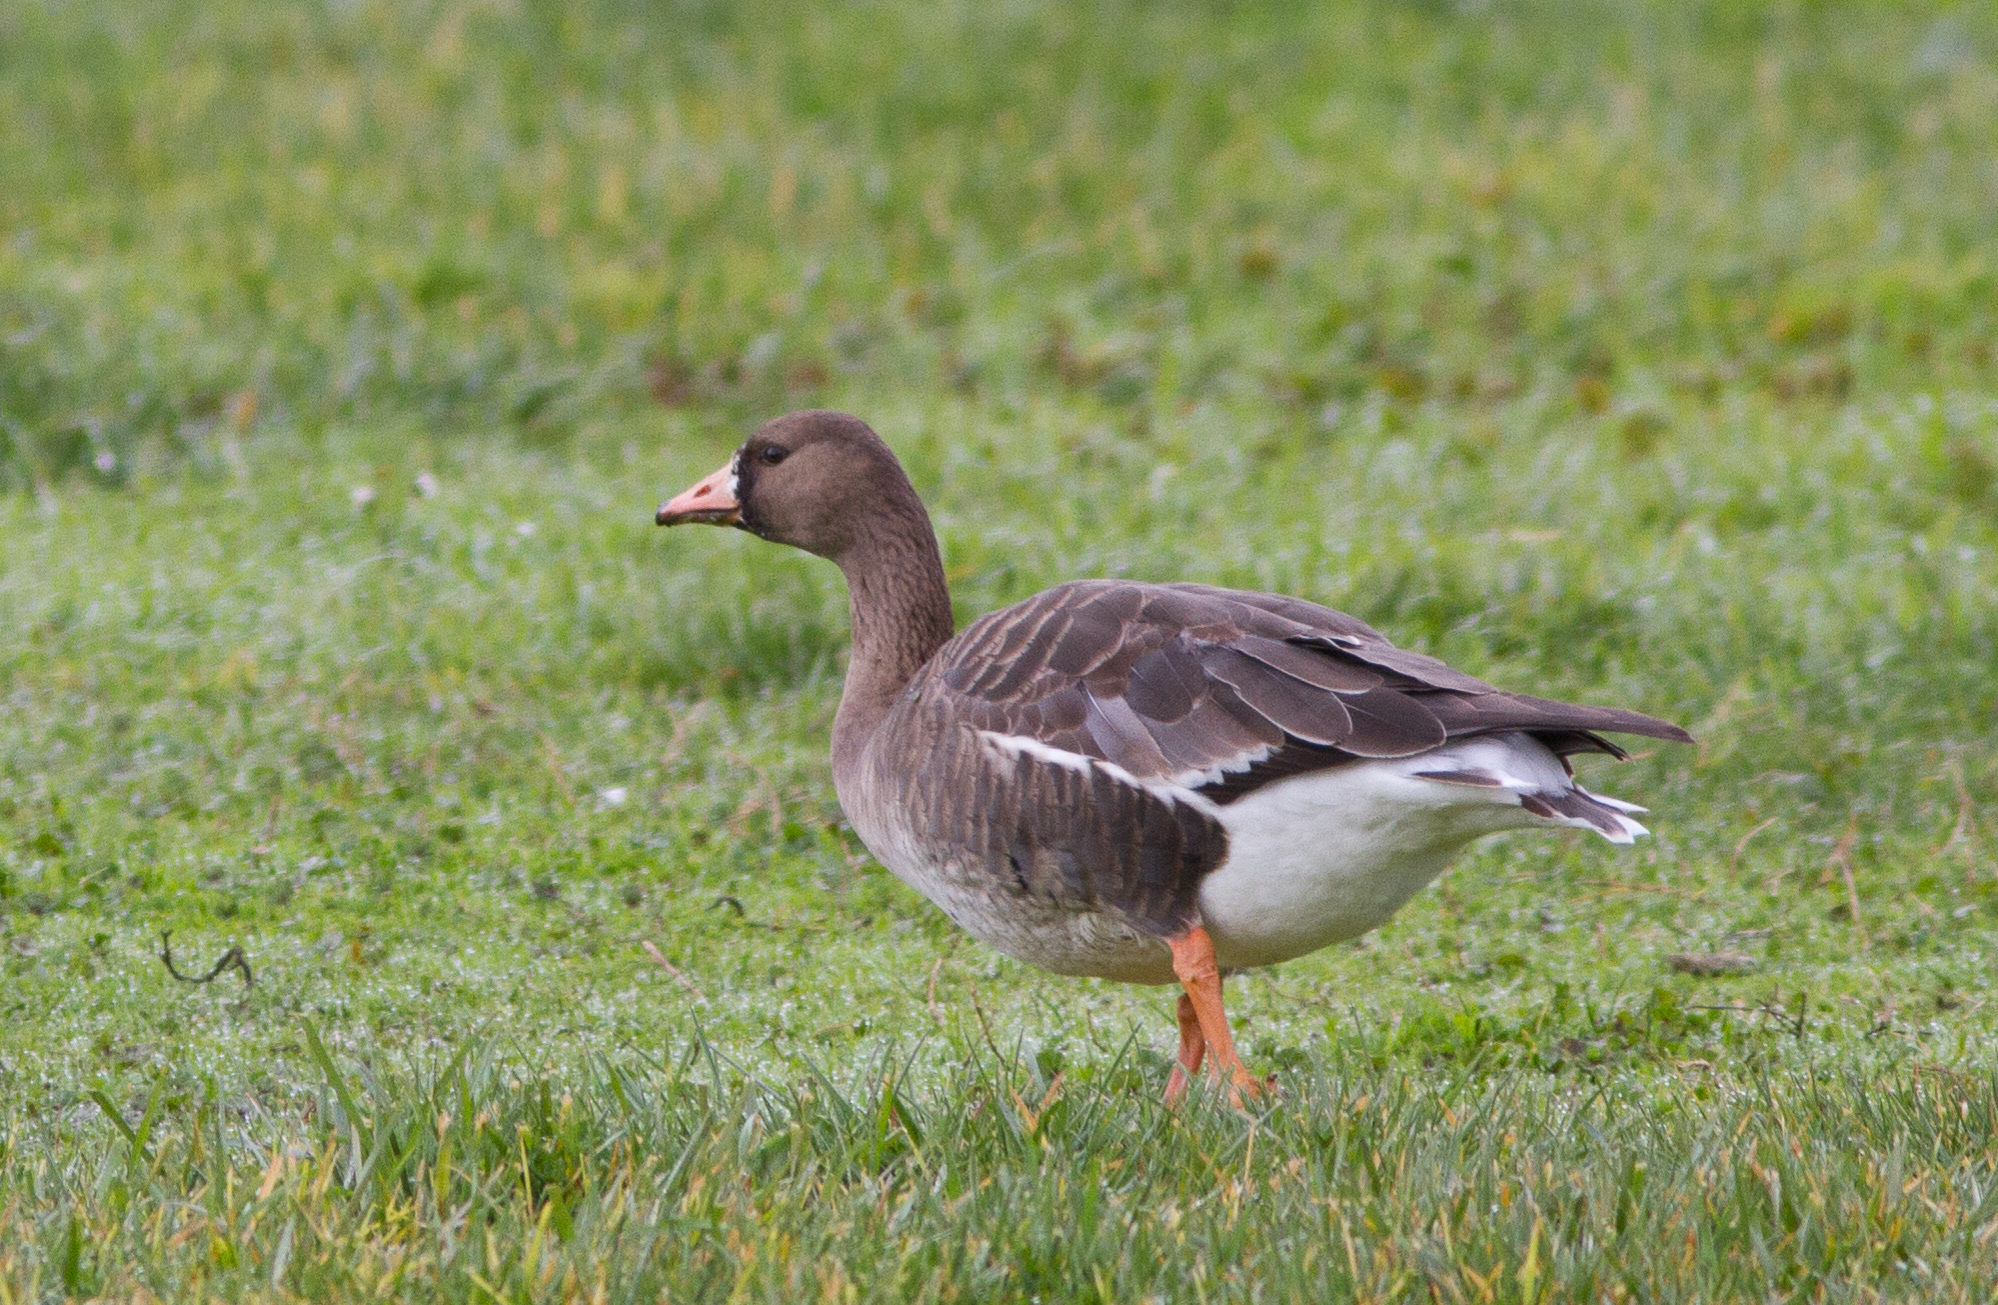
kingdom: Animalia
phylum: Chordata
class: Aves
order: Anseriformes
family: Anatidae
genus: Anser
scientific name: Anser albifrons
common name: Greater white-fronted goose
